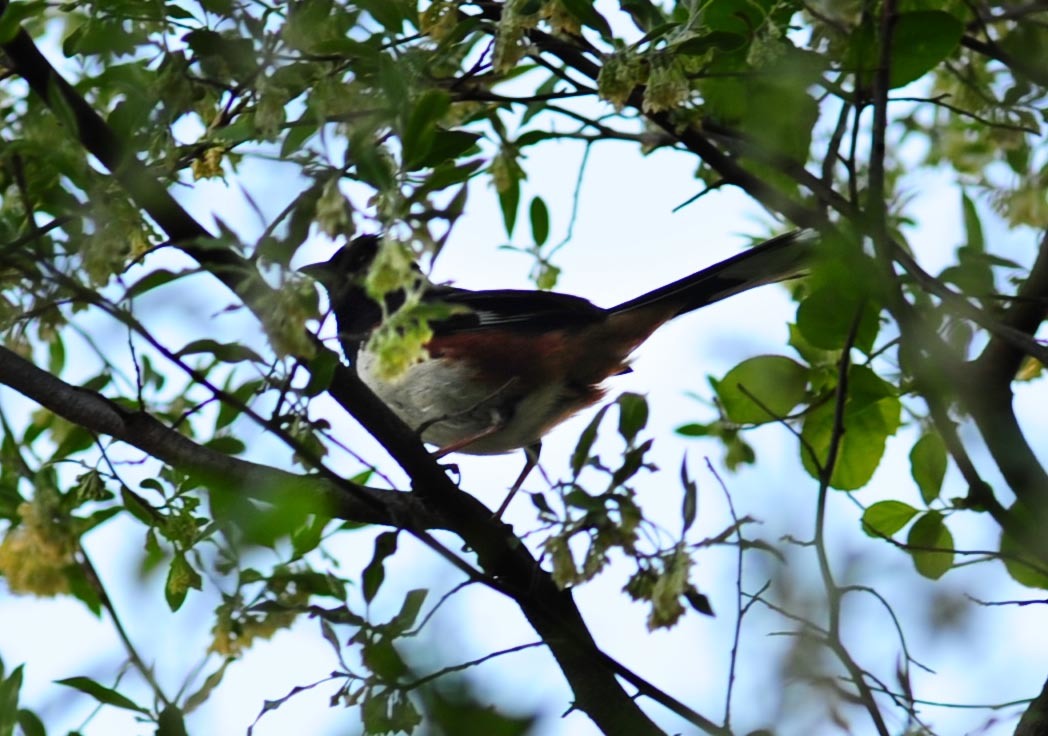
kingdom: Animalia
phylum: Chordata
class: Aves
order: Passeriformes
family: Passerellidae
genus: Pipilo
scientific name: Pipilo erythrophthalmus
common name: Eastern towhee
